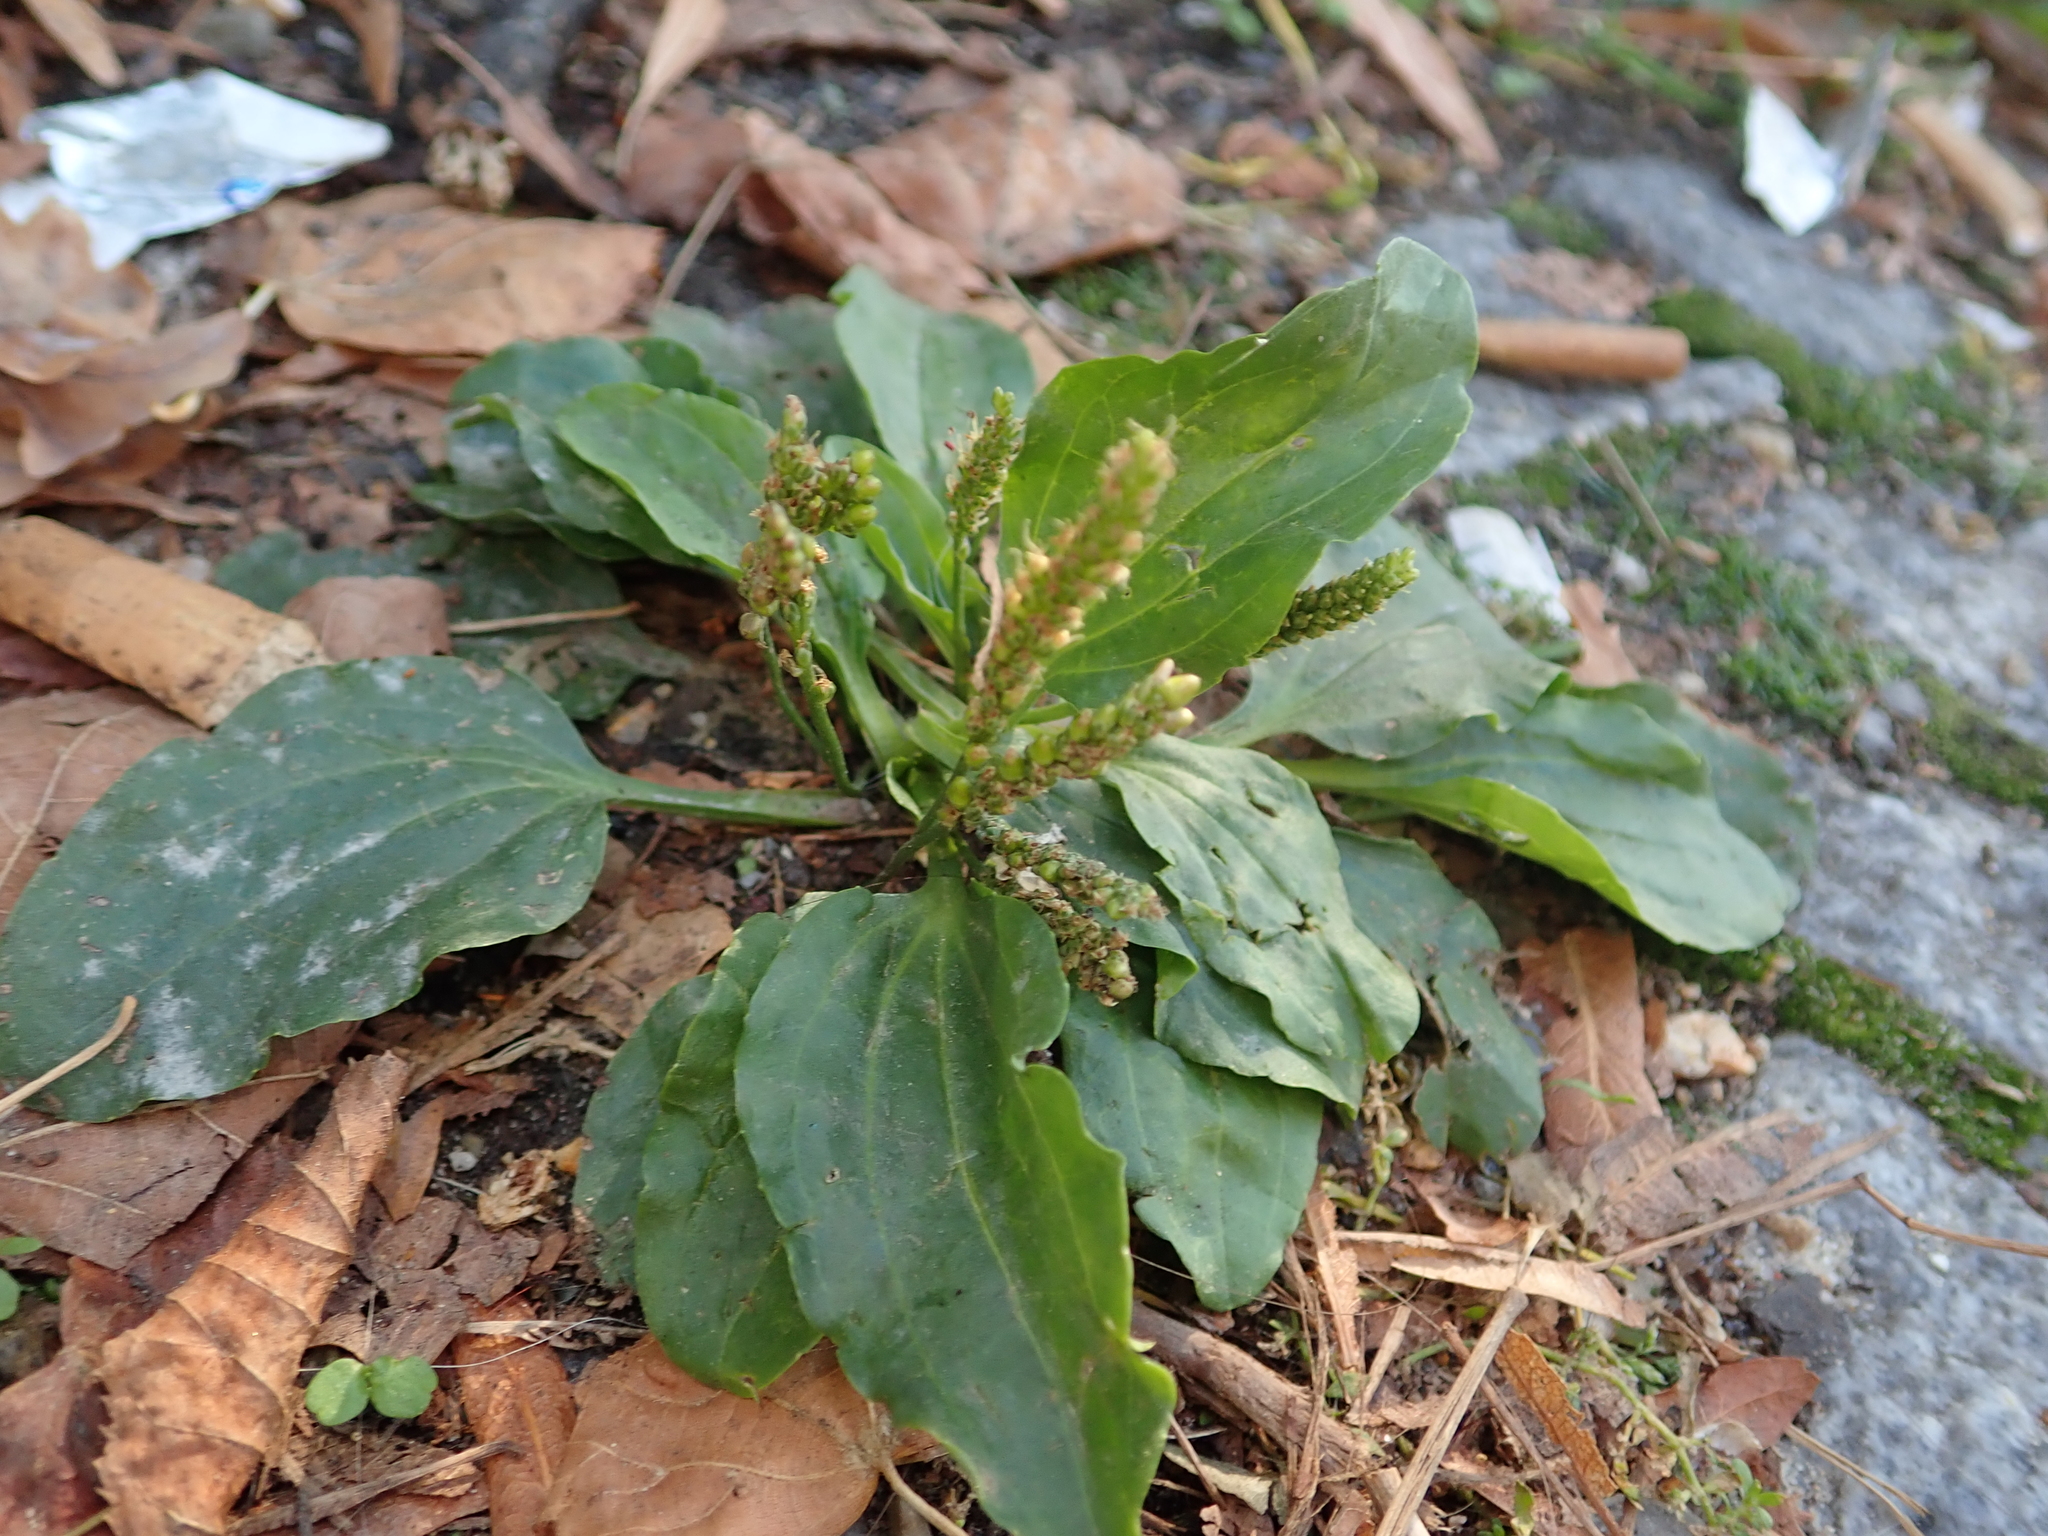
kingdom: Plantae
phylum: Tracheophyta
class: Magnoliopsida
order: Lamiales
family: Plantaginaceae
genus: Plantago
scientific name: Plantago major
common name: Common plantain
